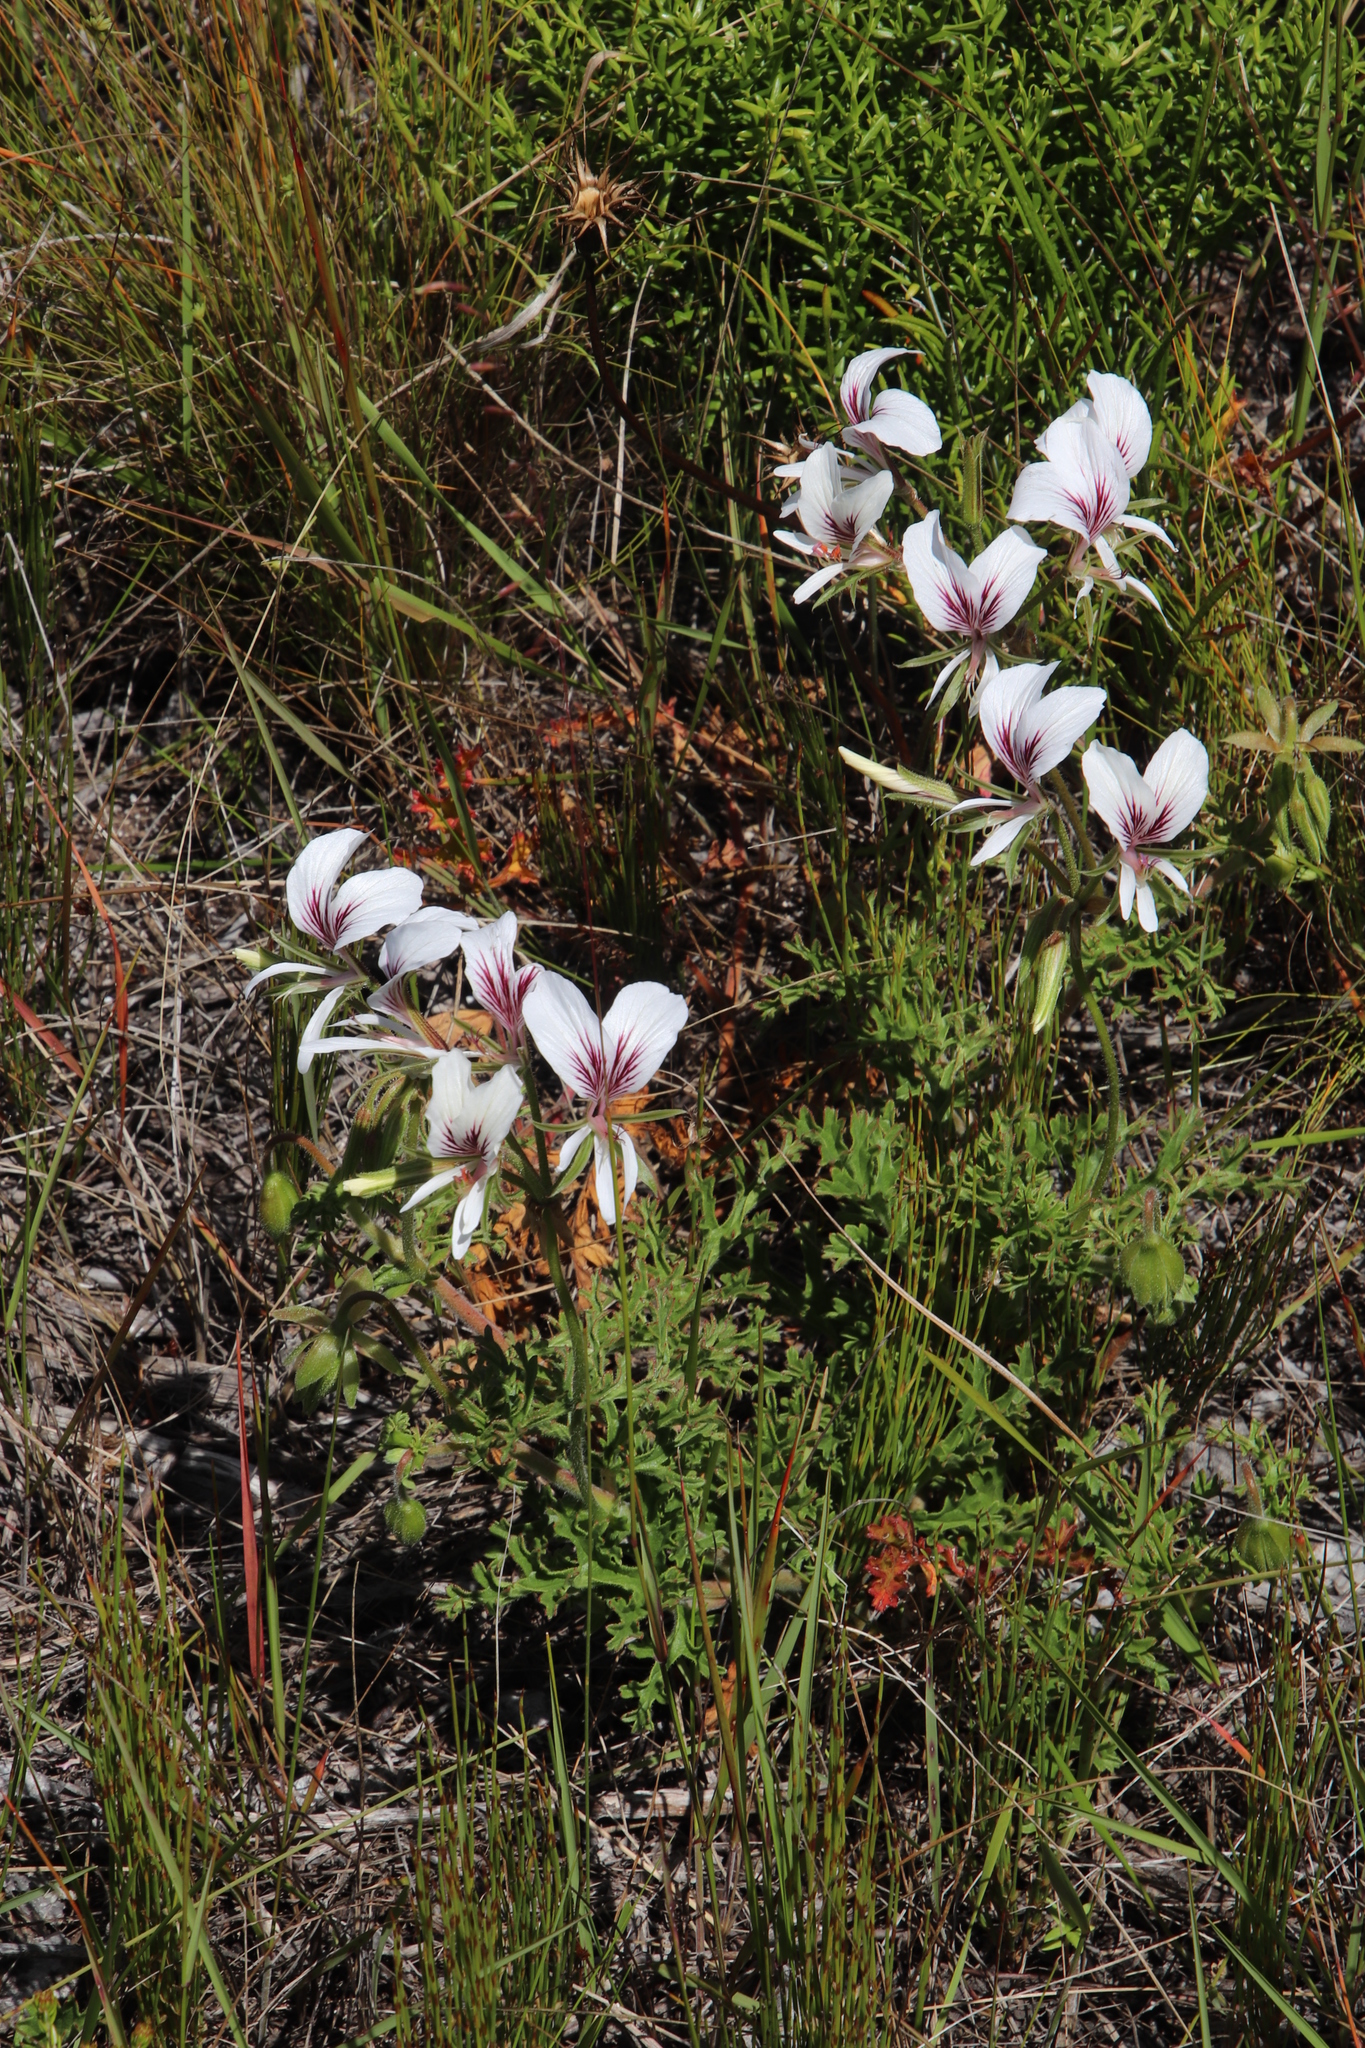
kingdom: Plantae
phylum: Tracheophyta
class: Magnoliopsida
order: Geraniales
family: Geraniaceae
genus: Pelargonium
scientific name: Pelargonium suburbanum
